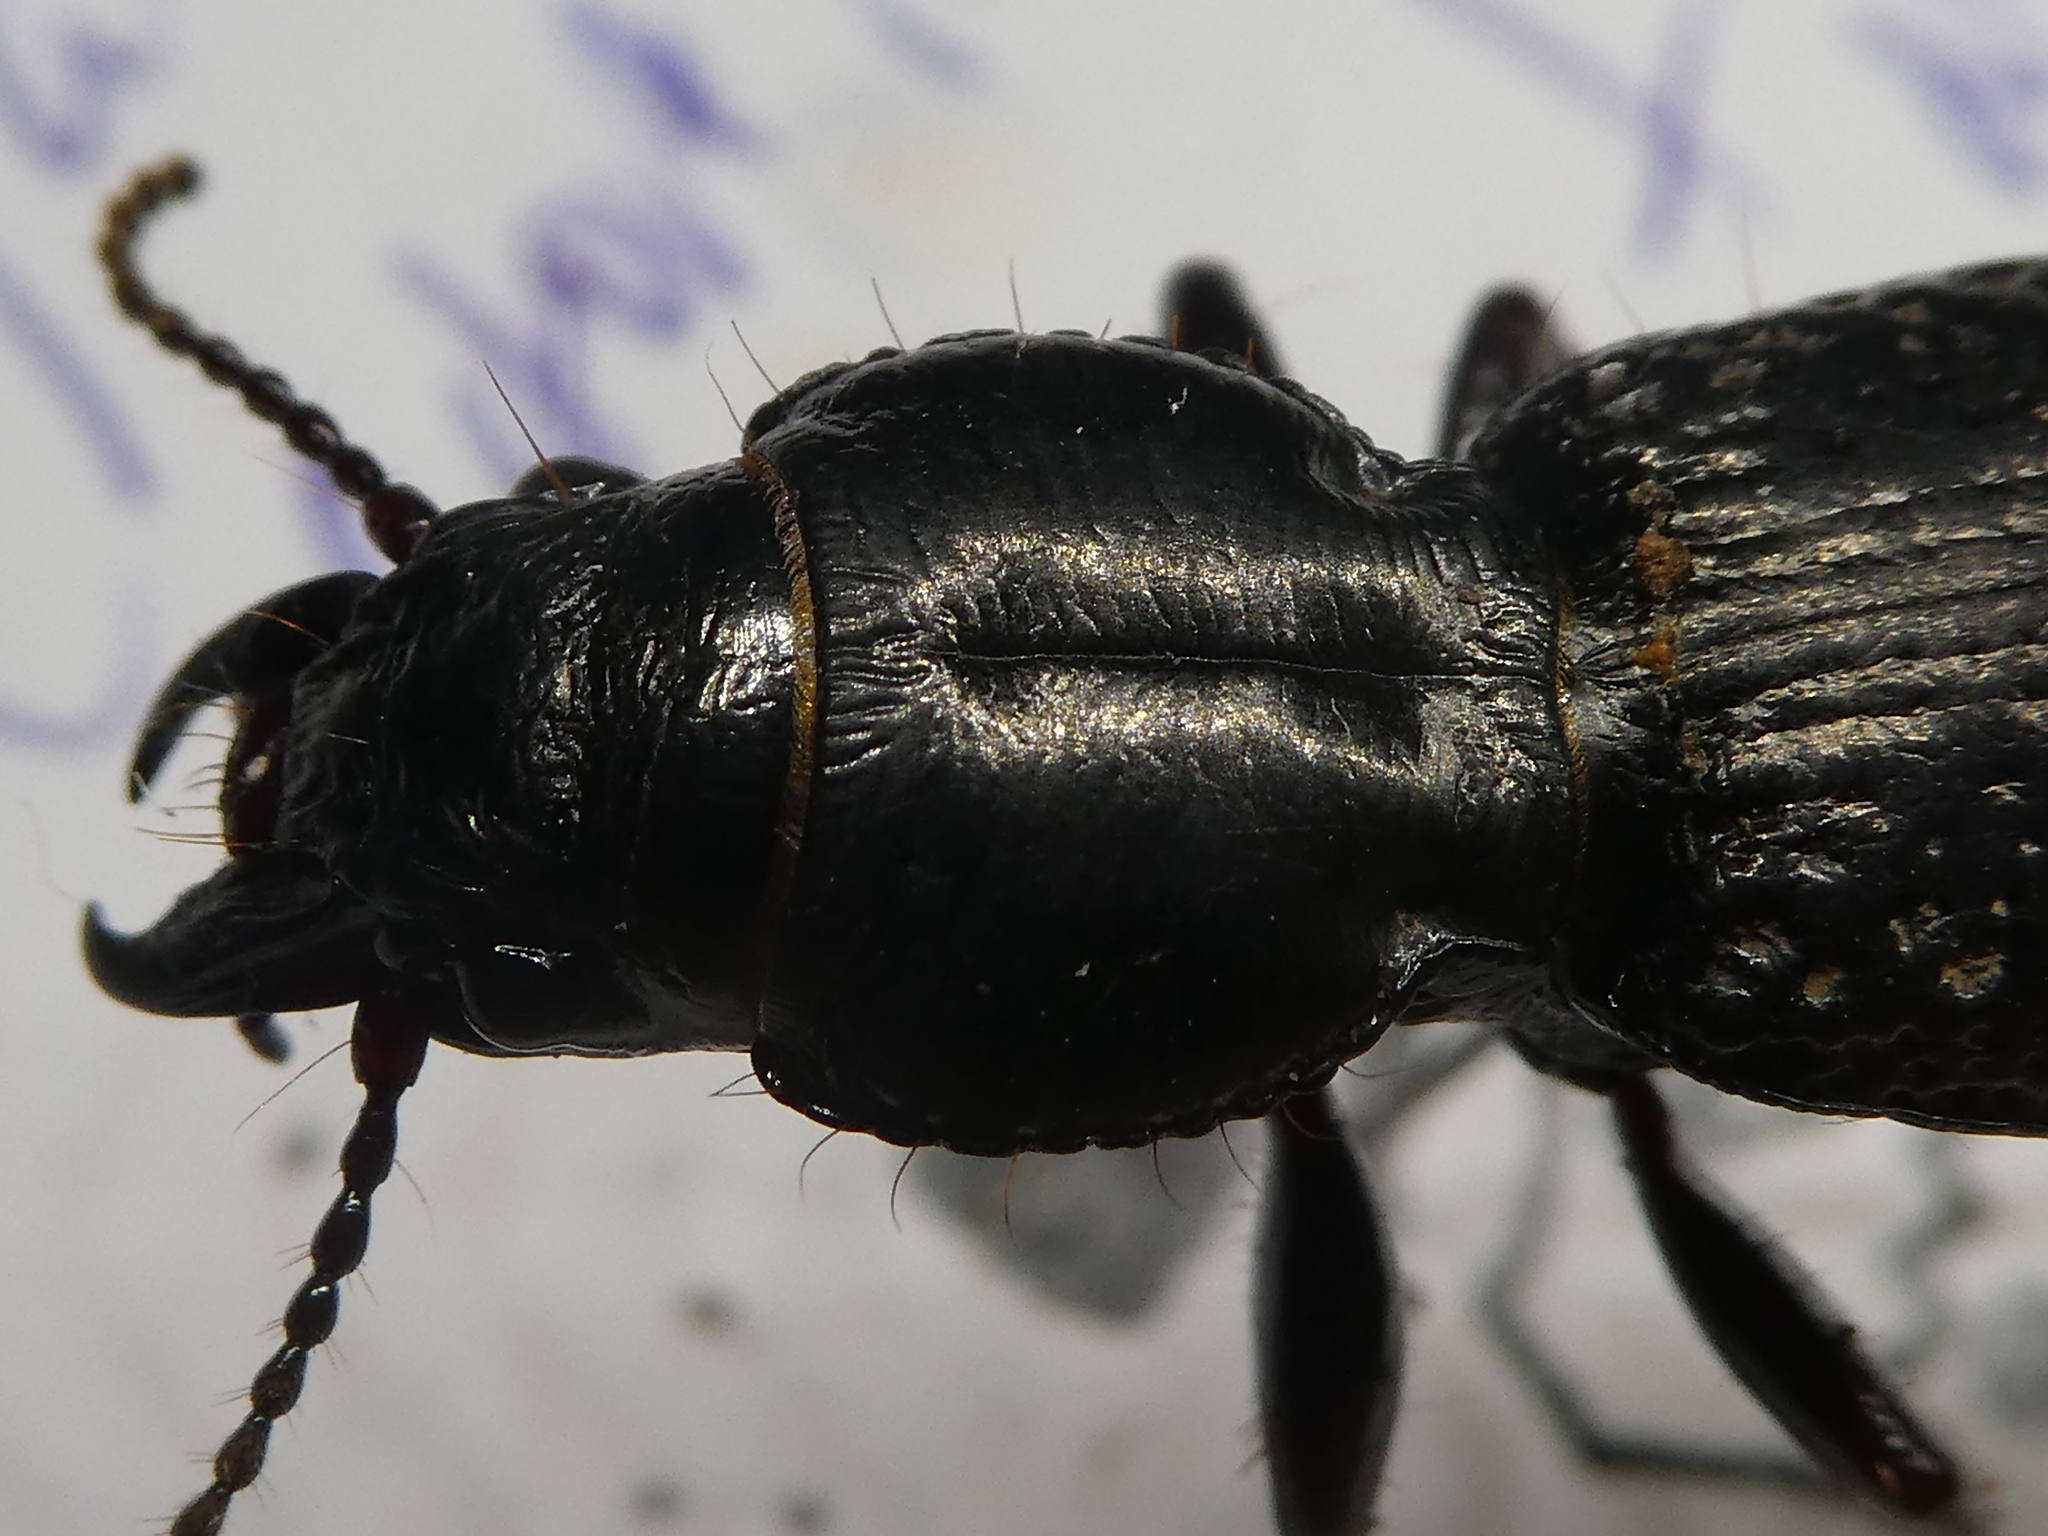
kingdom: Animalia
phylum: Arthropoda
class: Insecta
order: Coleoptera
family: Carabidae
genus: Mecodema
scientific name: Mecodema crenicolle
